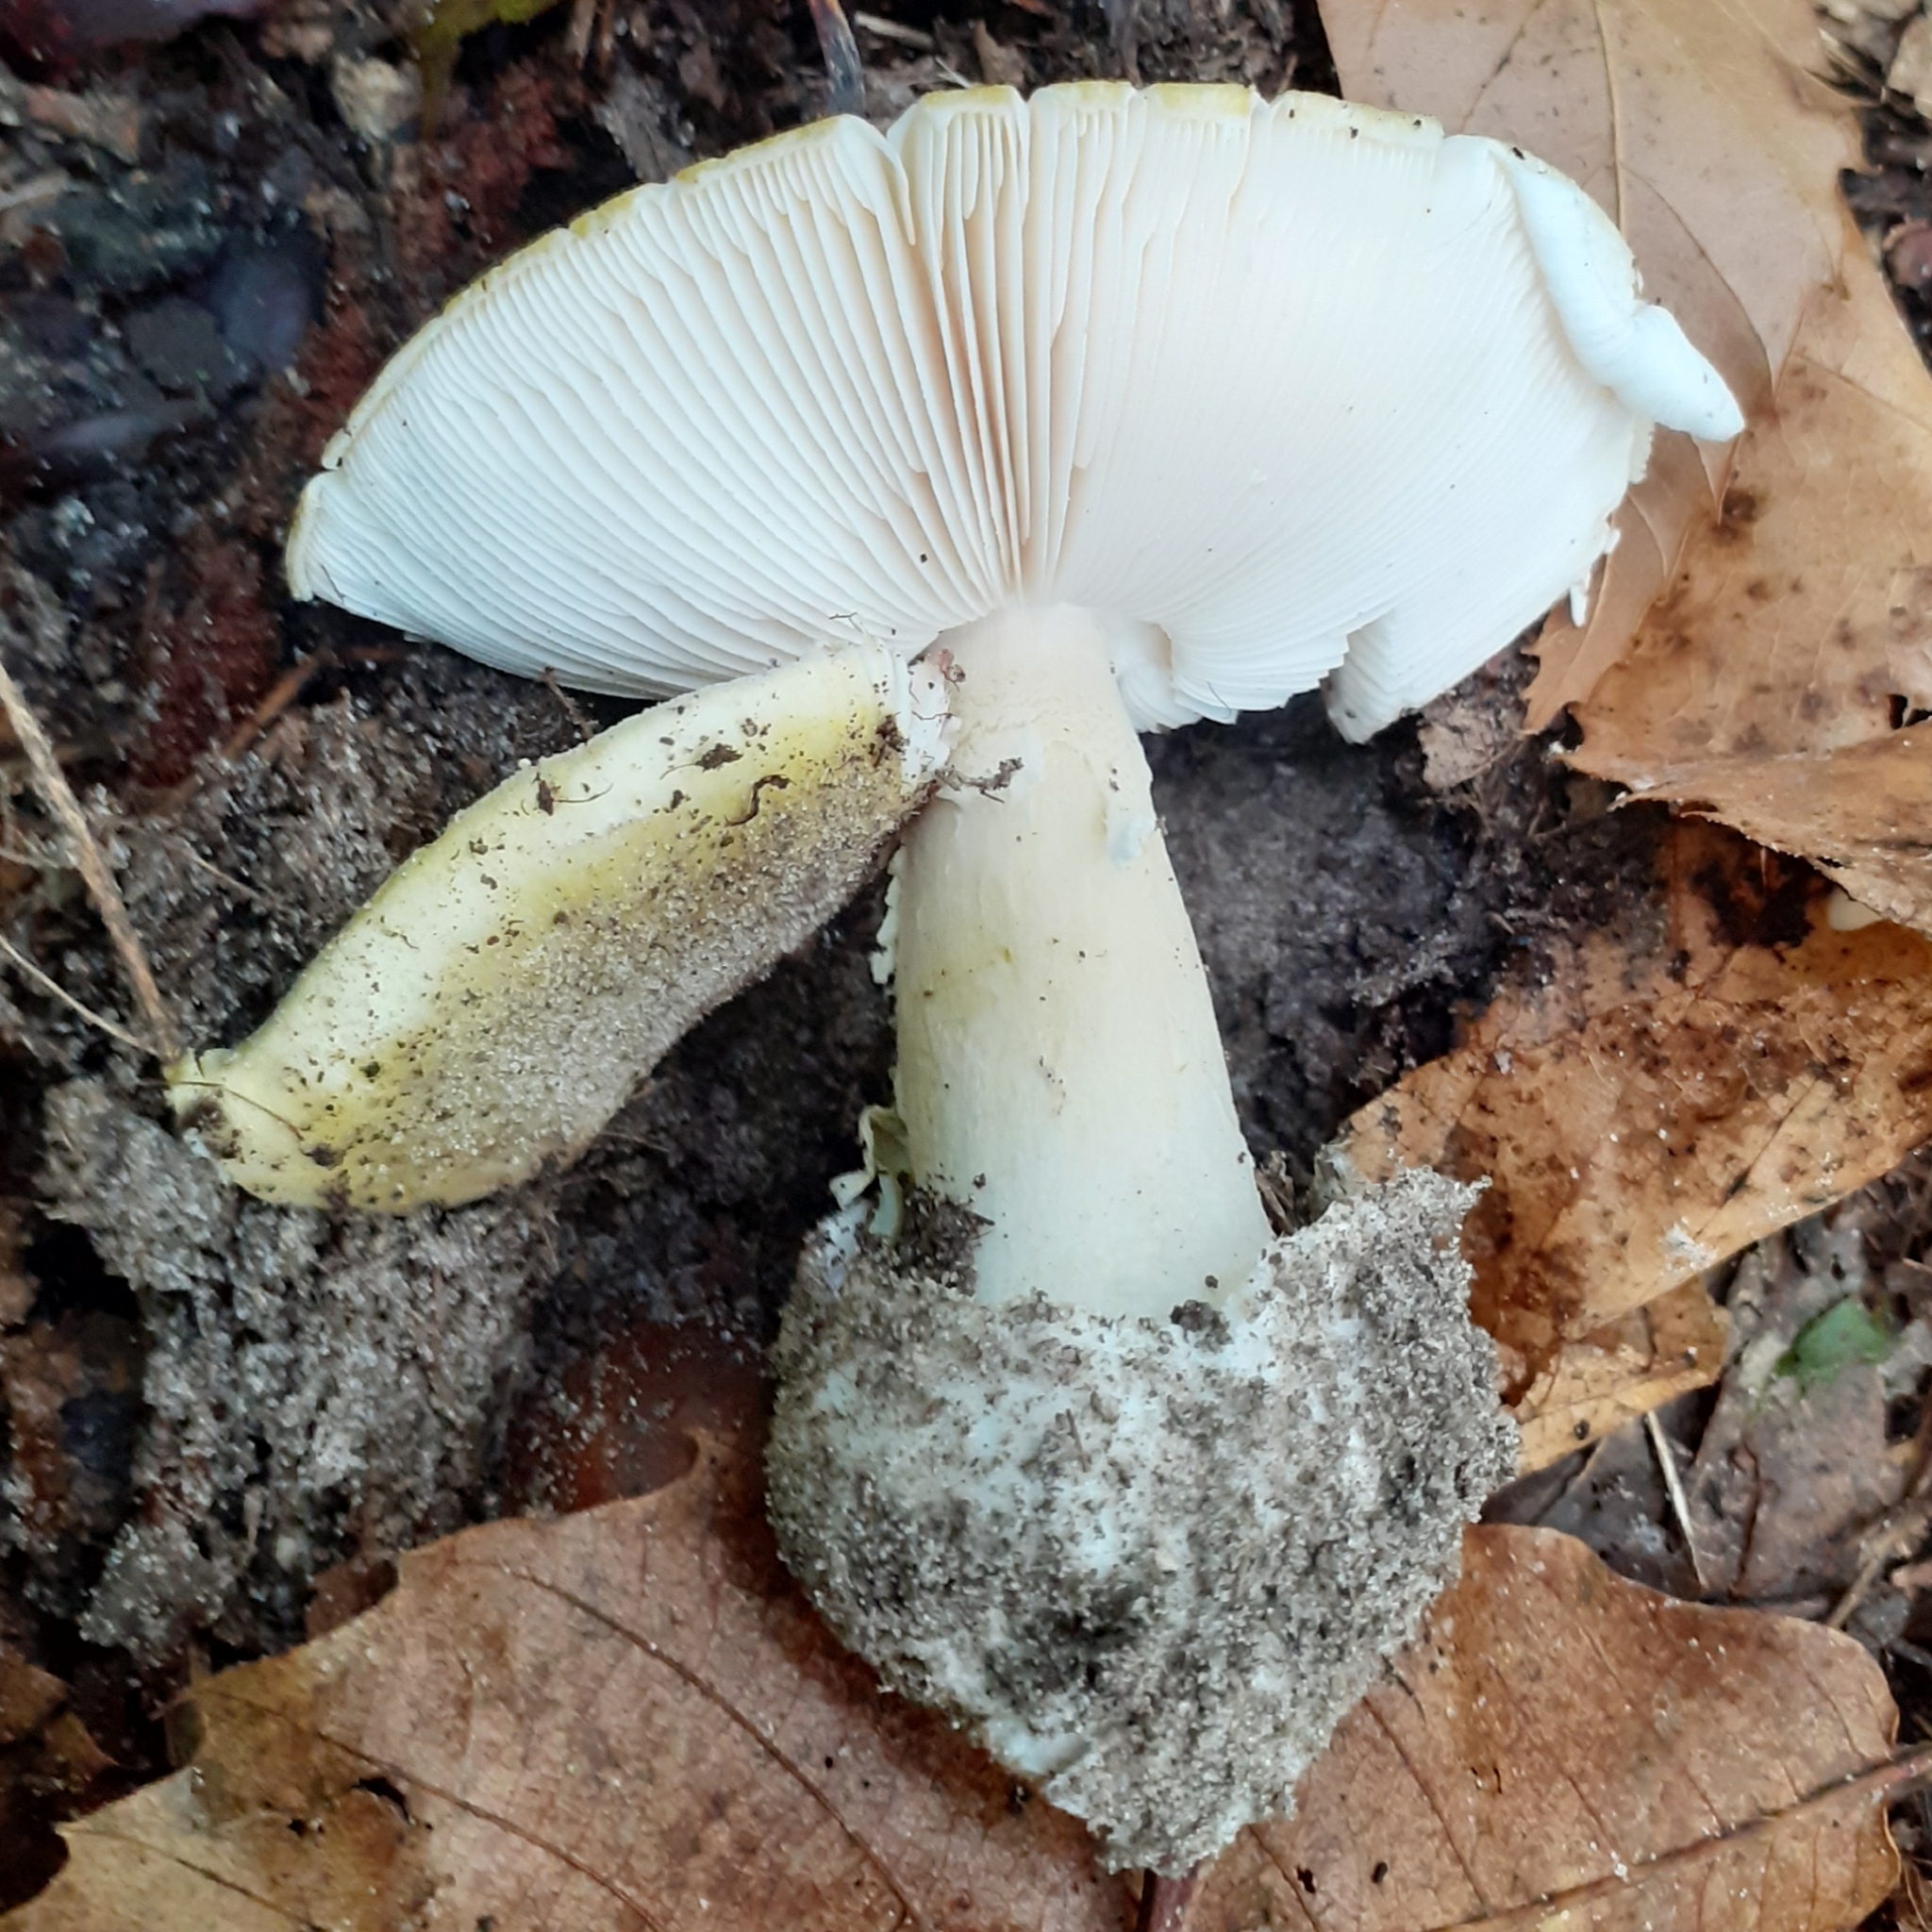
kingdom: Fungi
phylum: Basidiomycota
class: Agaricomycetes
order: Agaricales
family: Amanitaceae
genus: Amanita
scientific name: Amanita phalloides
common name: Death cap
